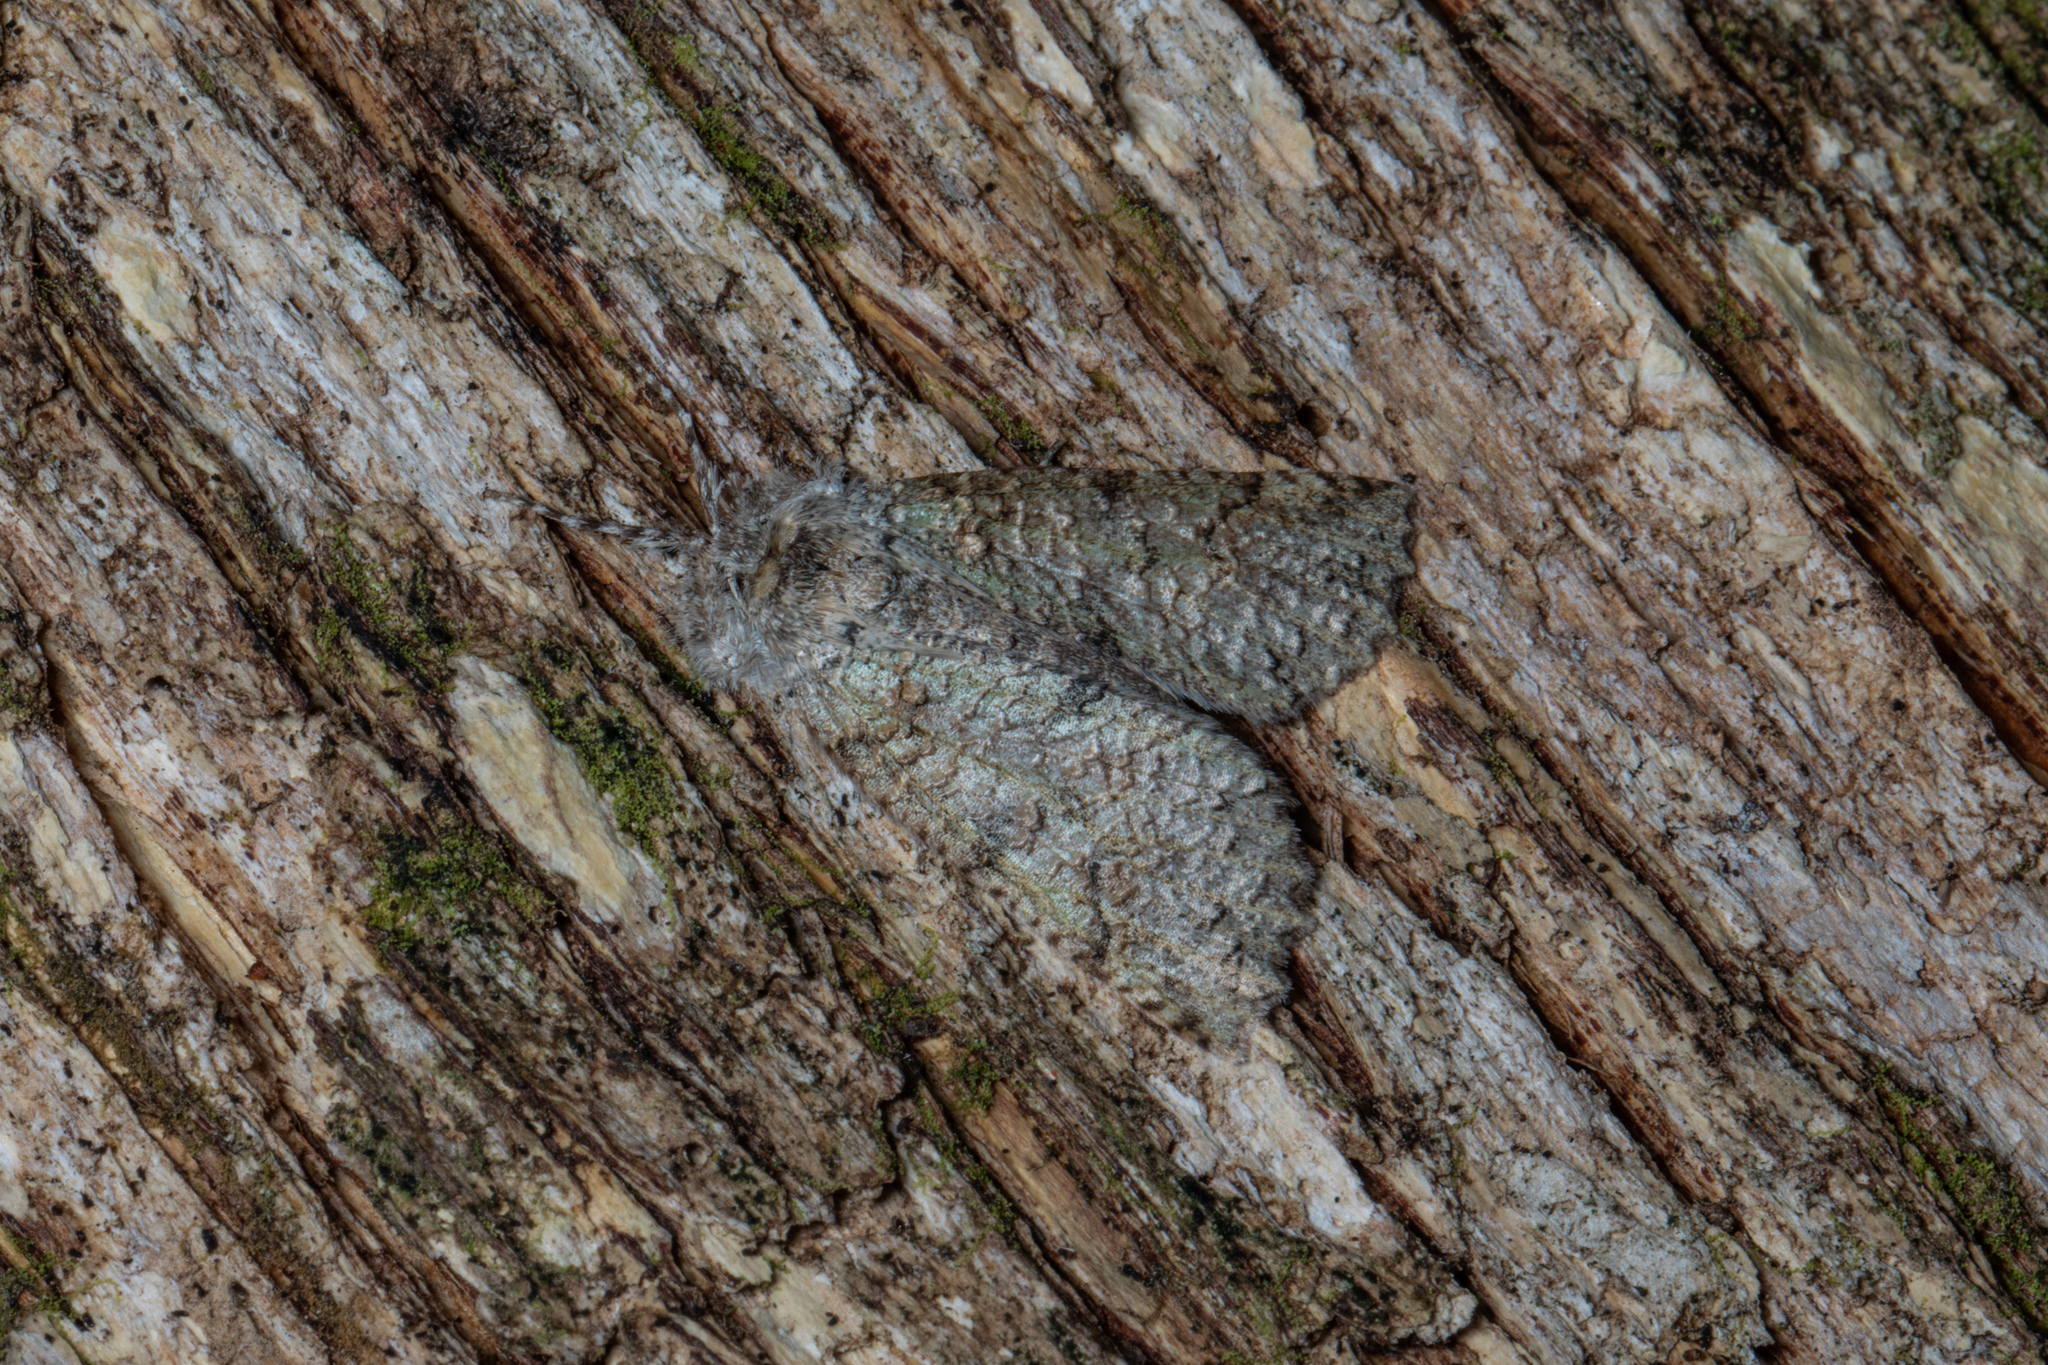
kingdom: Animalia
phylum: Arthropoda
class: Insecta
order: Lepidoptera
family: Geometridae
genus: Declana
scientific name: Declana floccosa
